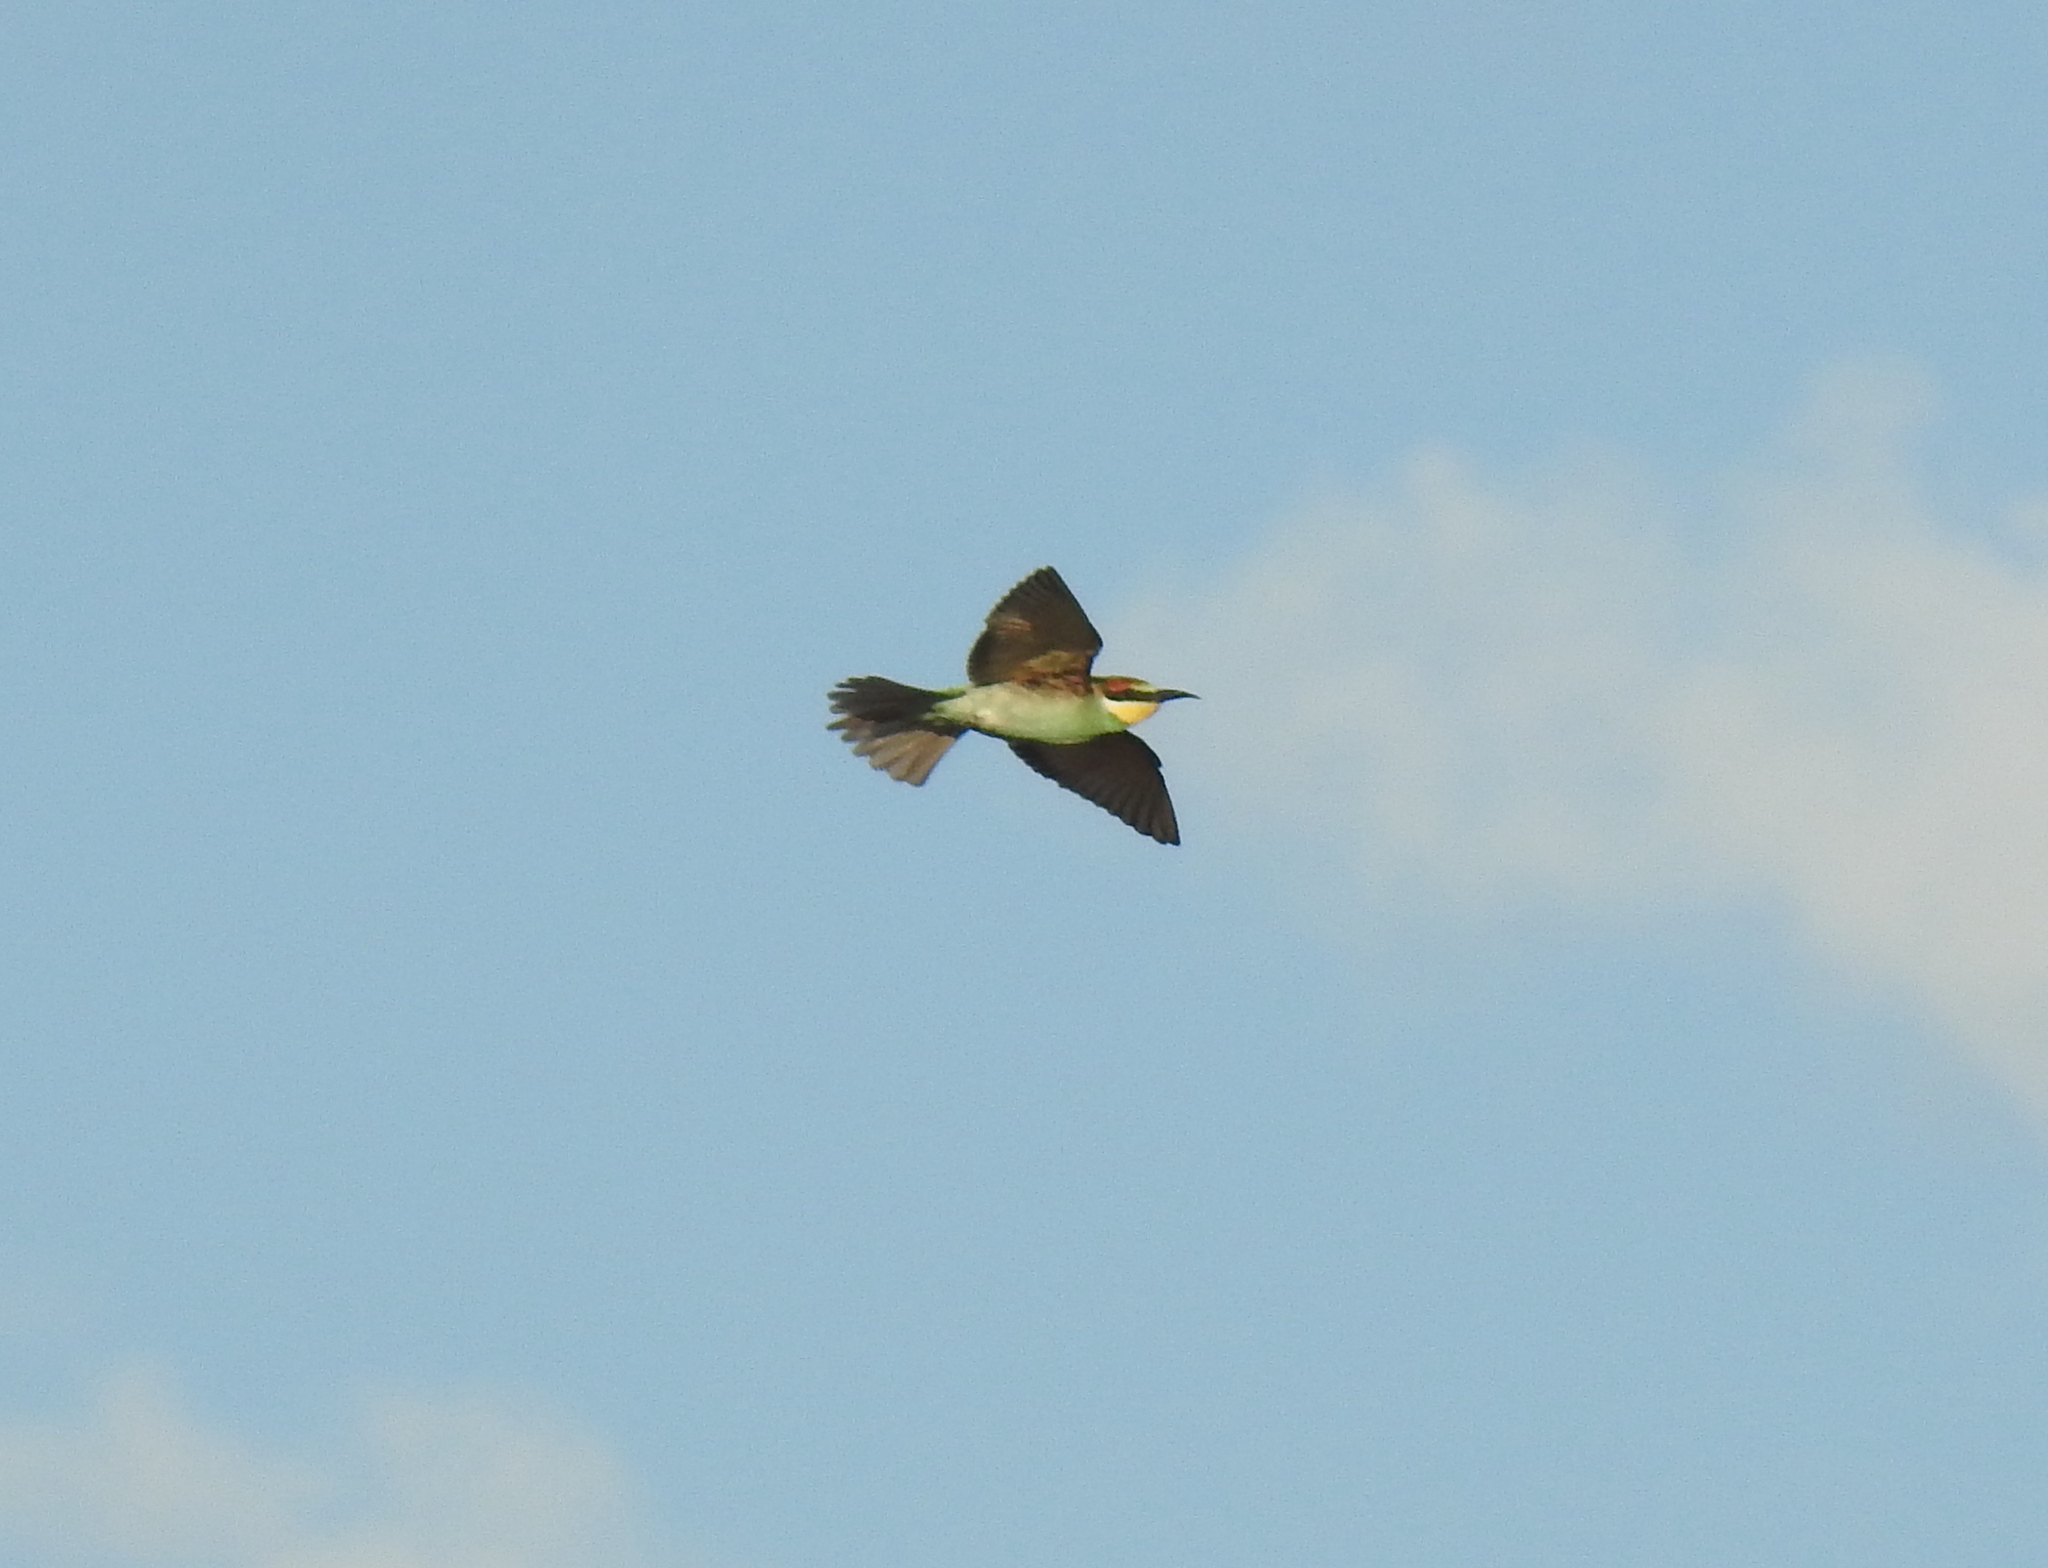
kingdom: Animalia
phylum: Chordata
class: Aves
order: Coraciiformes
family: Meropidae
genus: Merops
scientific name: Merops apiaster
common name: European bee-eater
